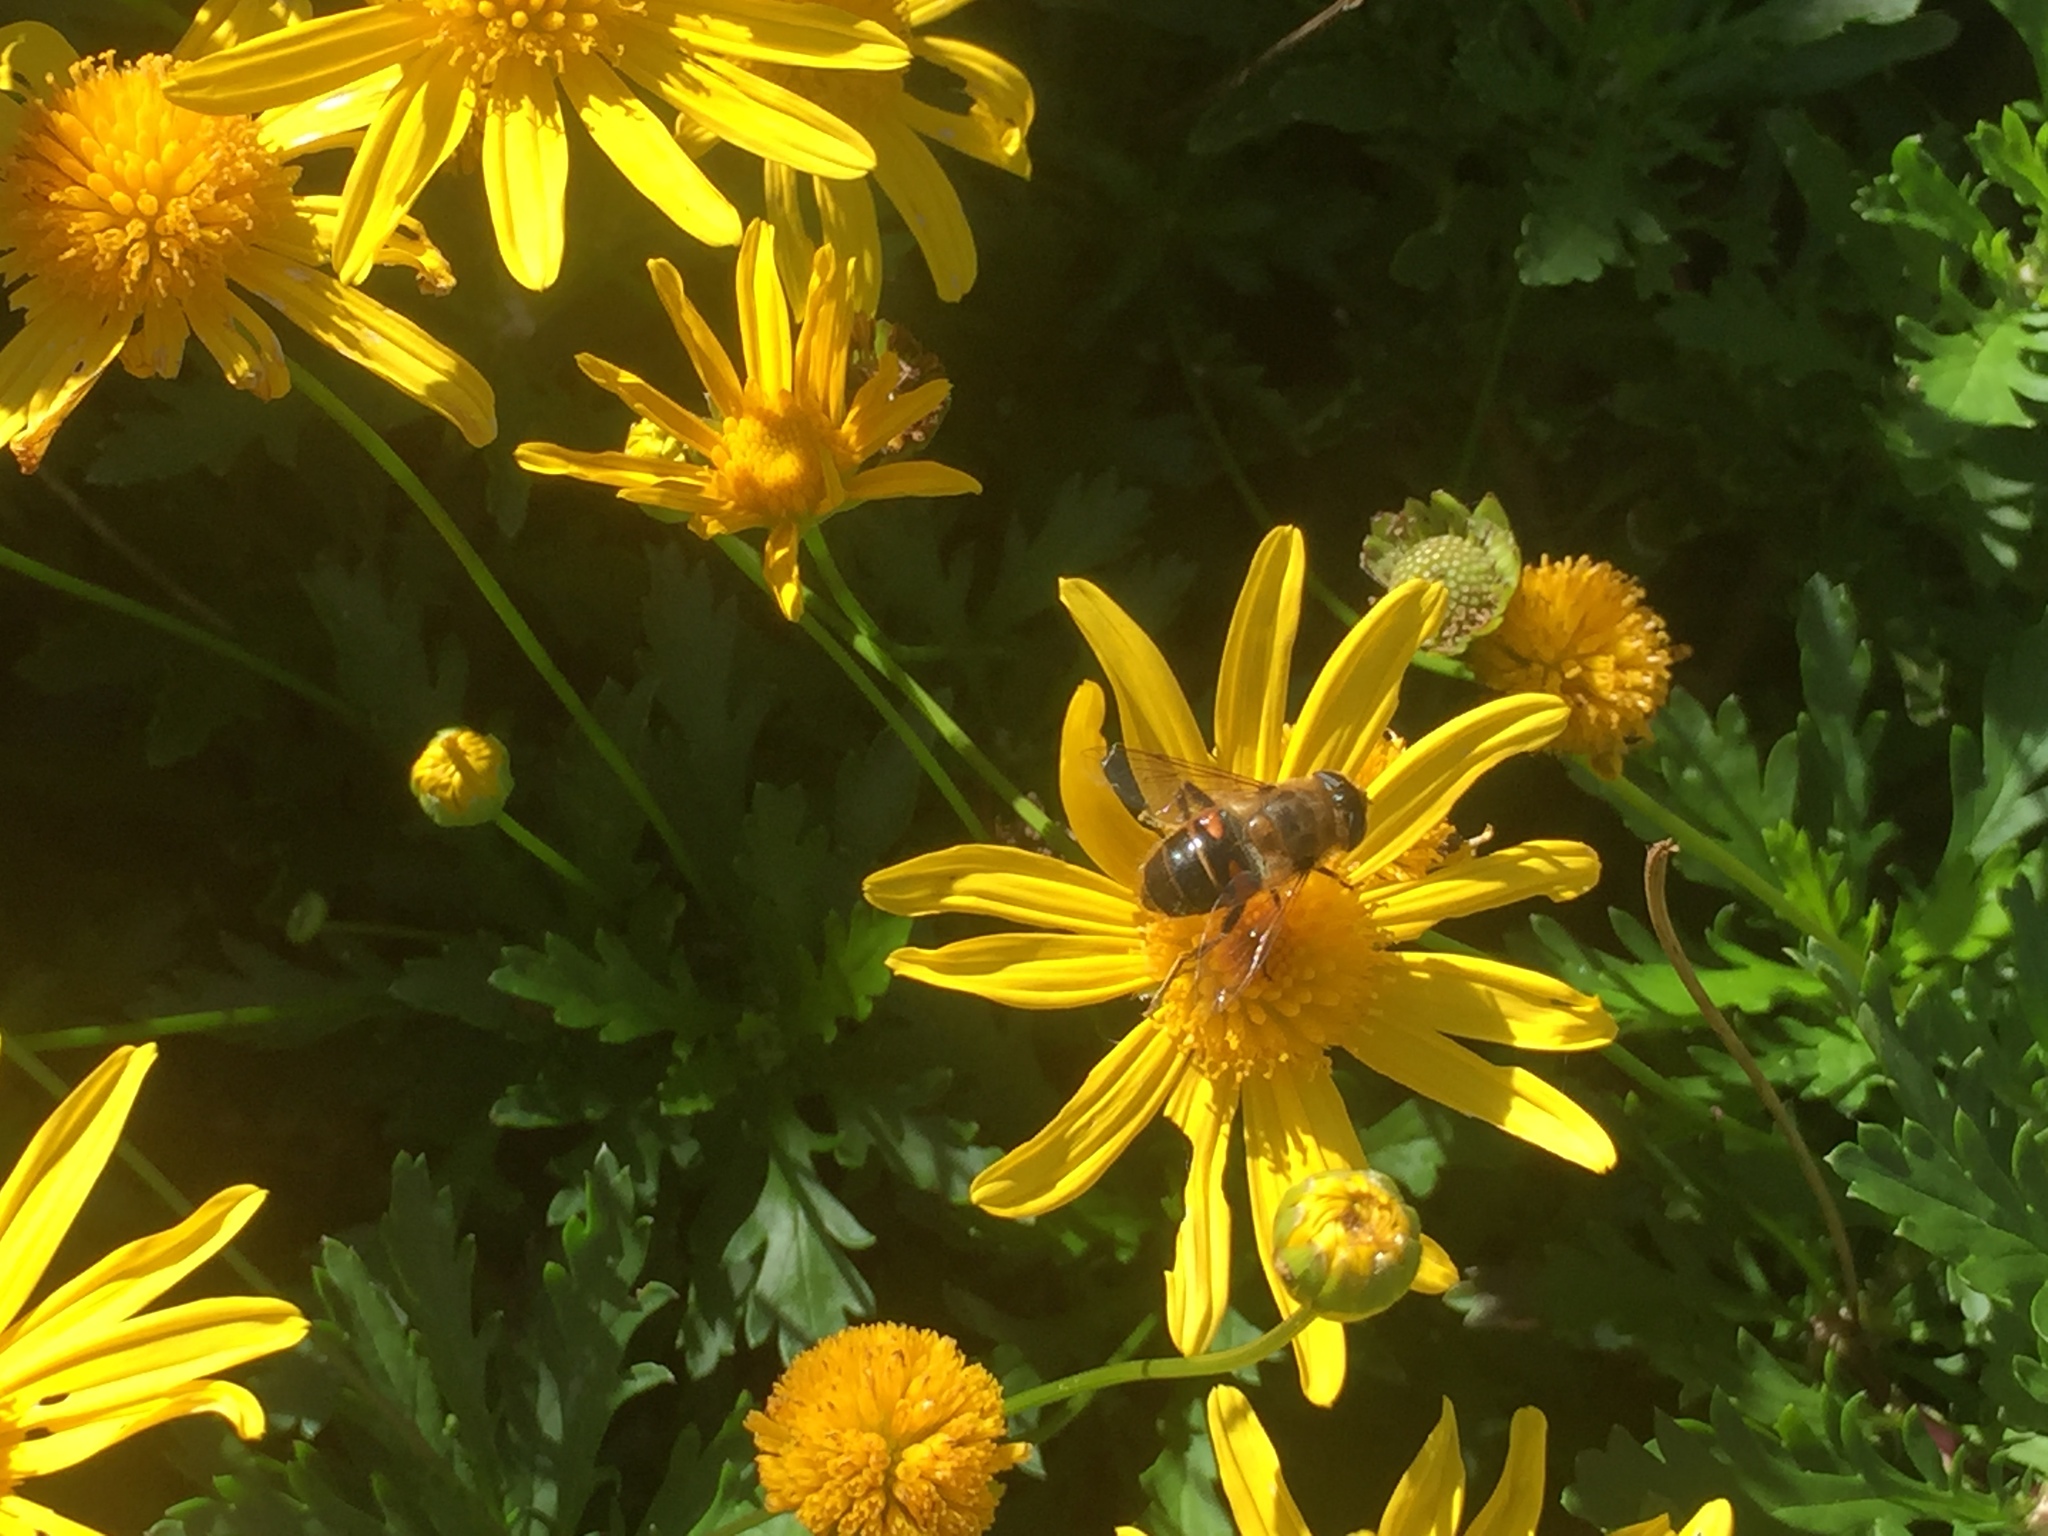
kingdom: Animalia
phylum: Arthropoda
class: Insecta
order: Diptera
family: Syrphidae
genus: Eristalis
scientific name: Eristalis tenax
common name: Drone fly
